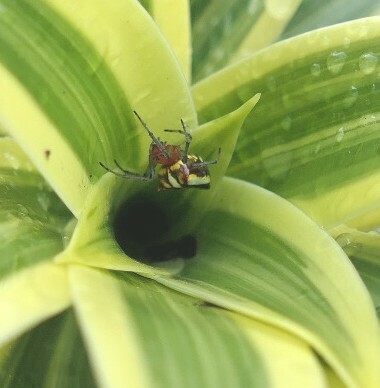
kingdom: Animalia
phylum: Arthropoda
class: Arachnida
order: Araneae
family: Araneidae
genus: Alpaida
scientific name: Alpaida bicornuta
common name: Orb weavers
